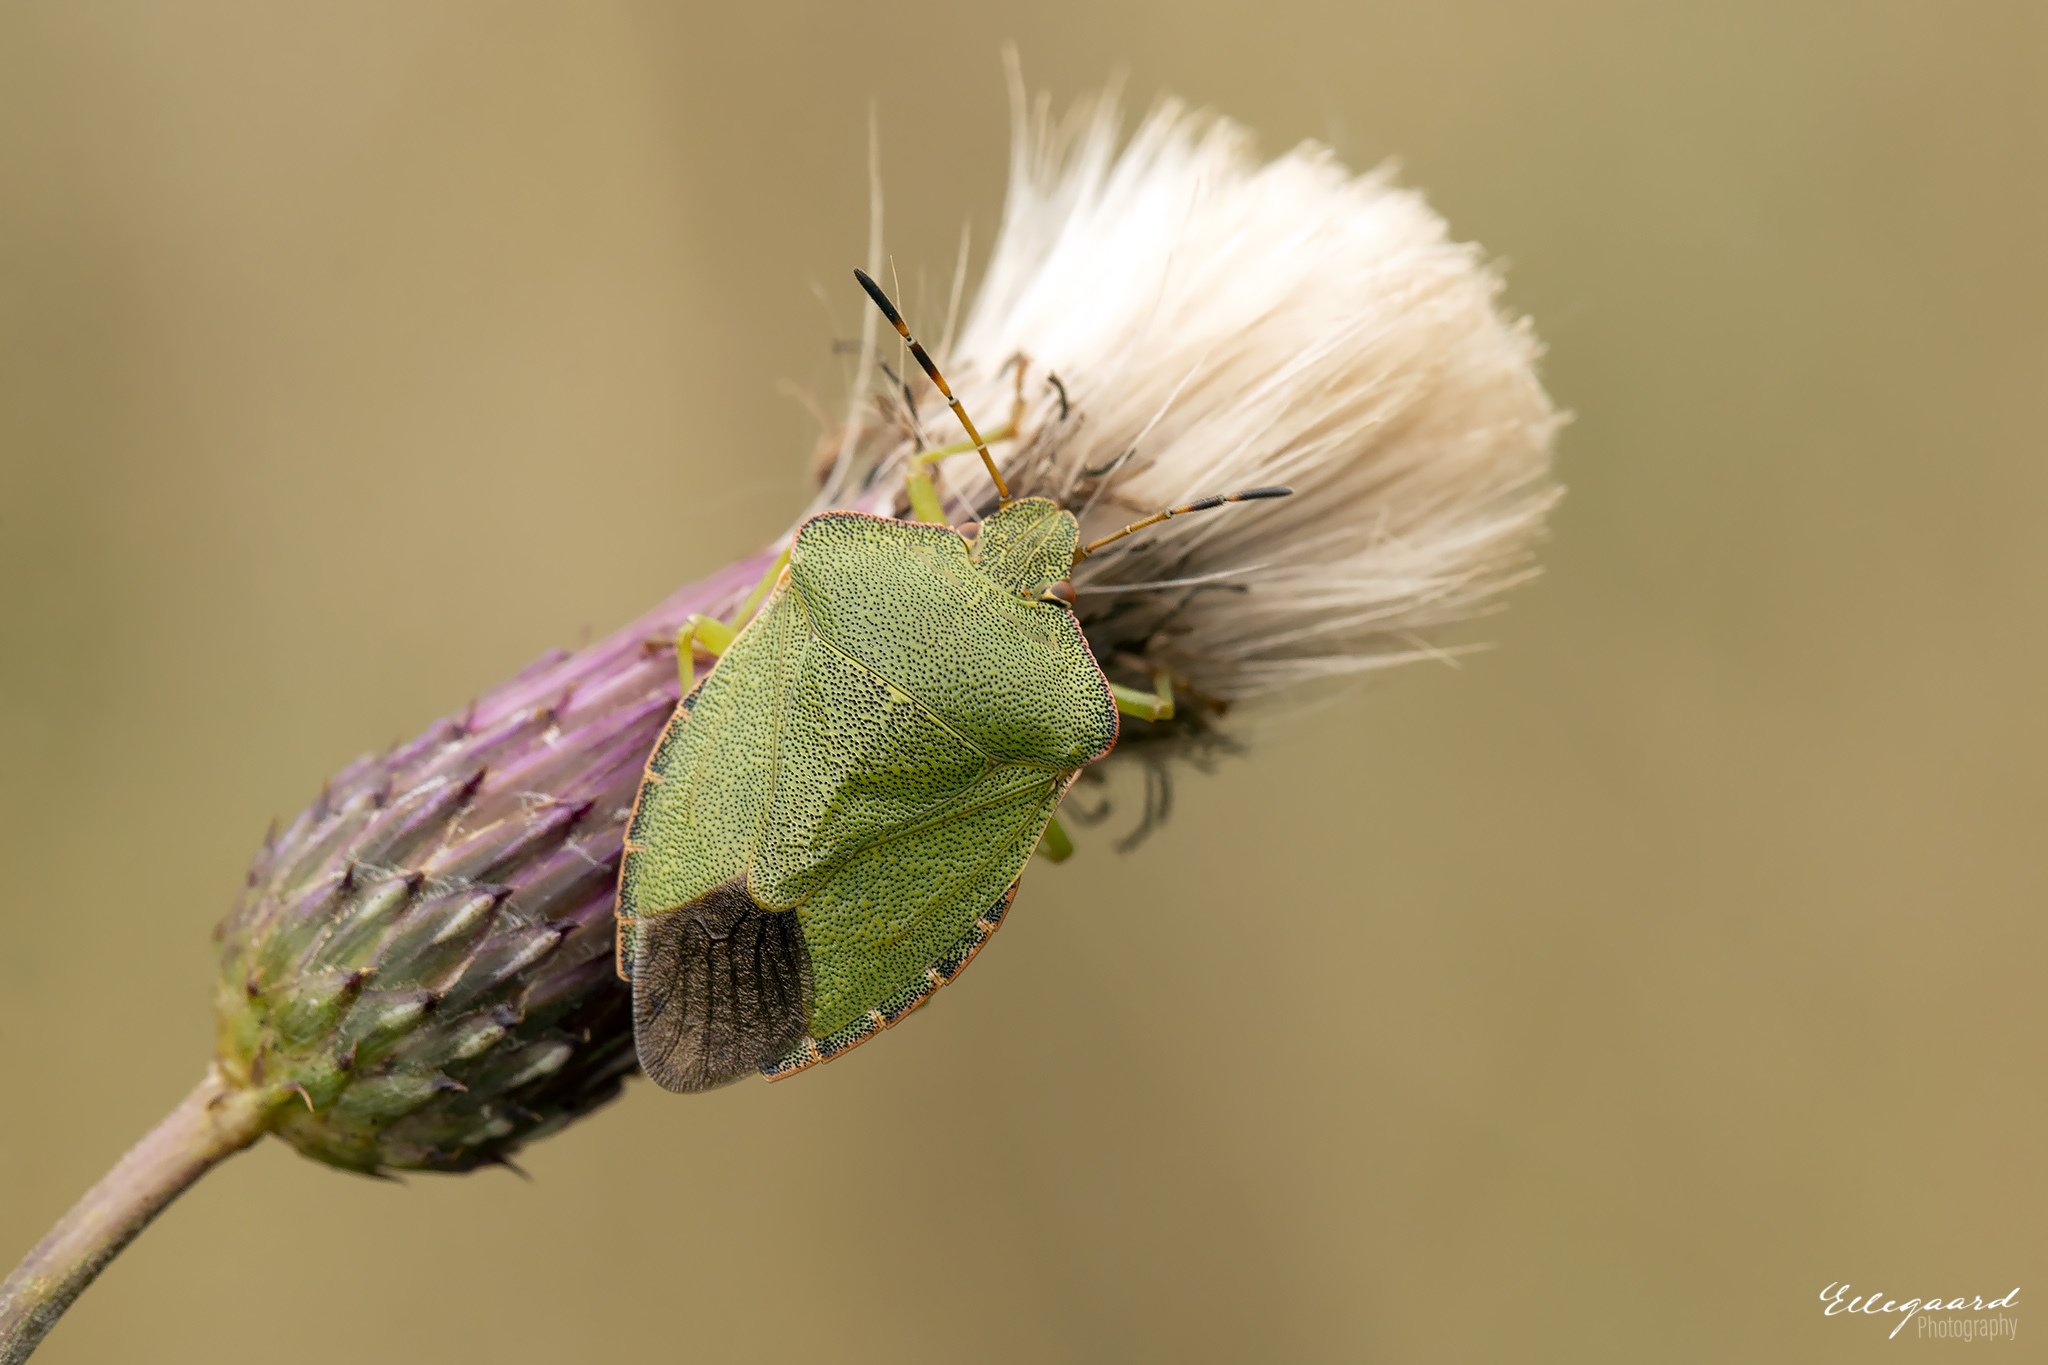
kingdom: Animalia
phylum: Arthropoda
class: Insecta
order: Hemiptera
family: Pentatomidae
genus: Palomena
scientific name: Palomena prasina
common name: Green shieldbug
